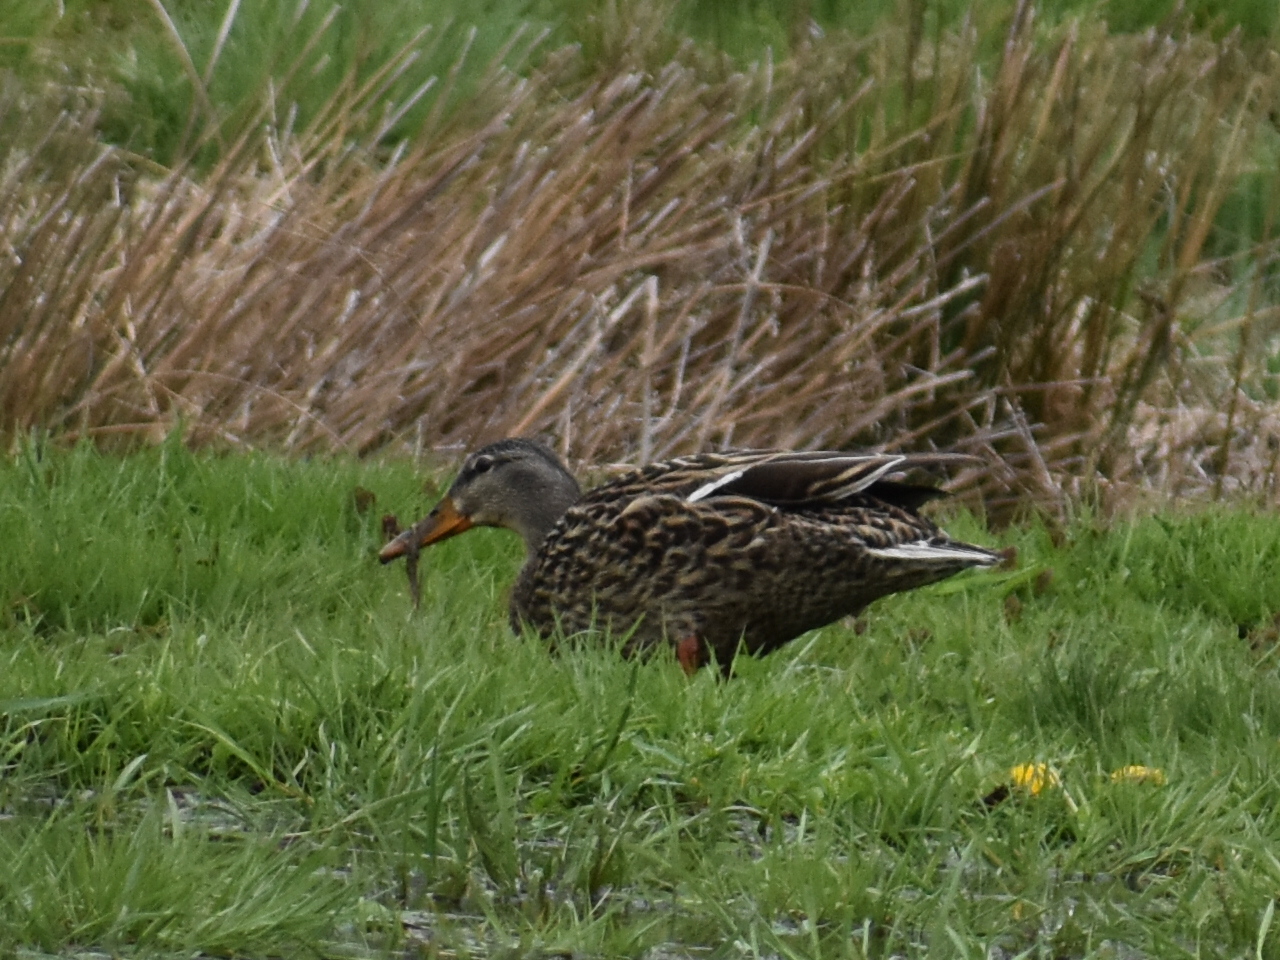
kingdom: Animalia
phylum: Chordata
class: Aves
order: Anseriformes
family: Anatidae
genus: Anas
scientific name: Anas platyrhynchos
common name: Mallard
